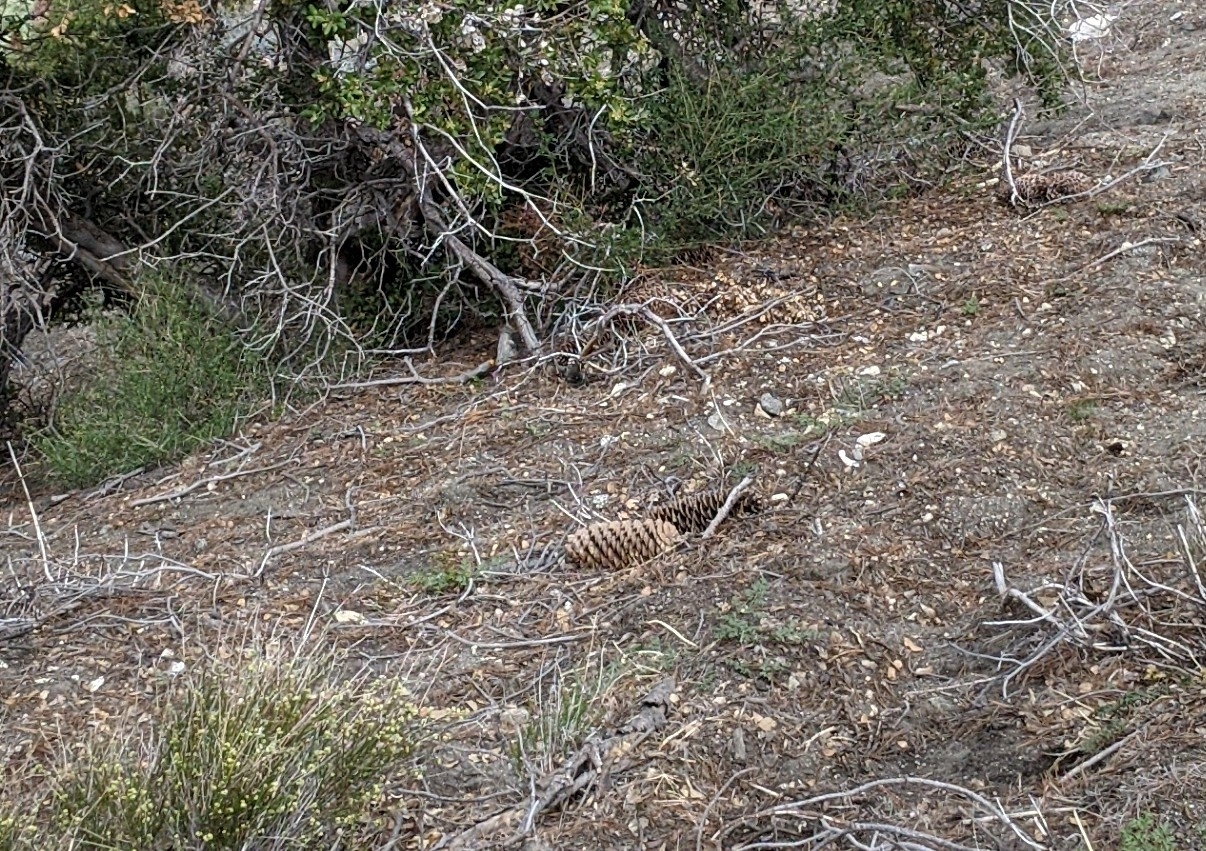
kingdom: Plantae
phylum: Tracheophyta
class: Pinopsida
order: Pinales
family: Pinaceae
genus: Pinus
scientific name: Pinus lambertiana
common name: Sugar pine
